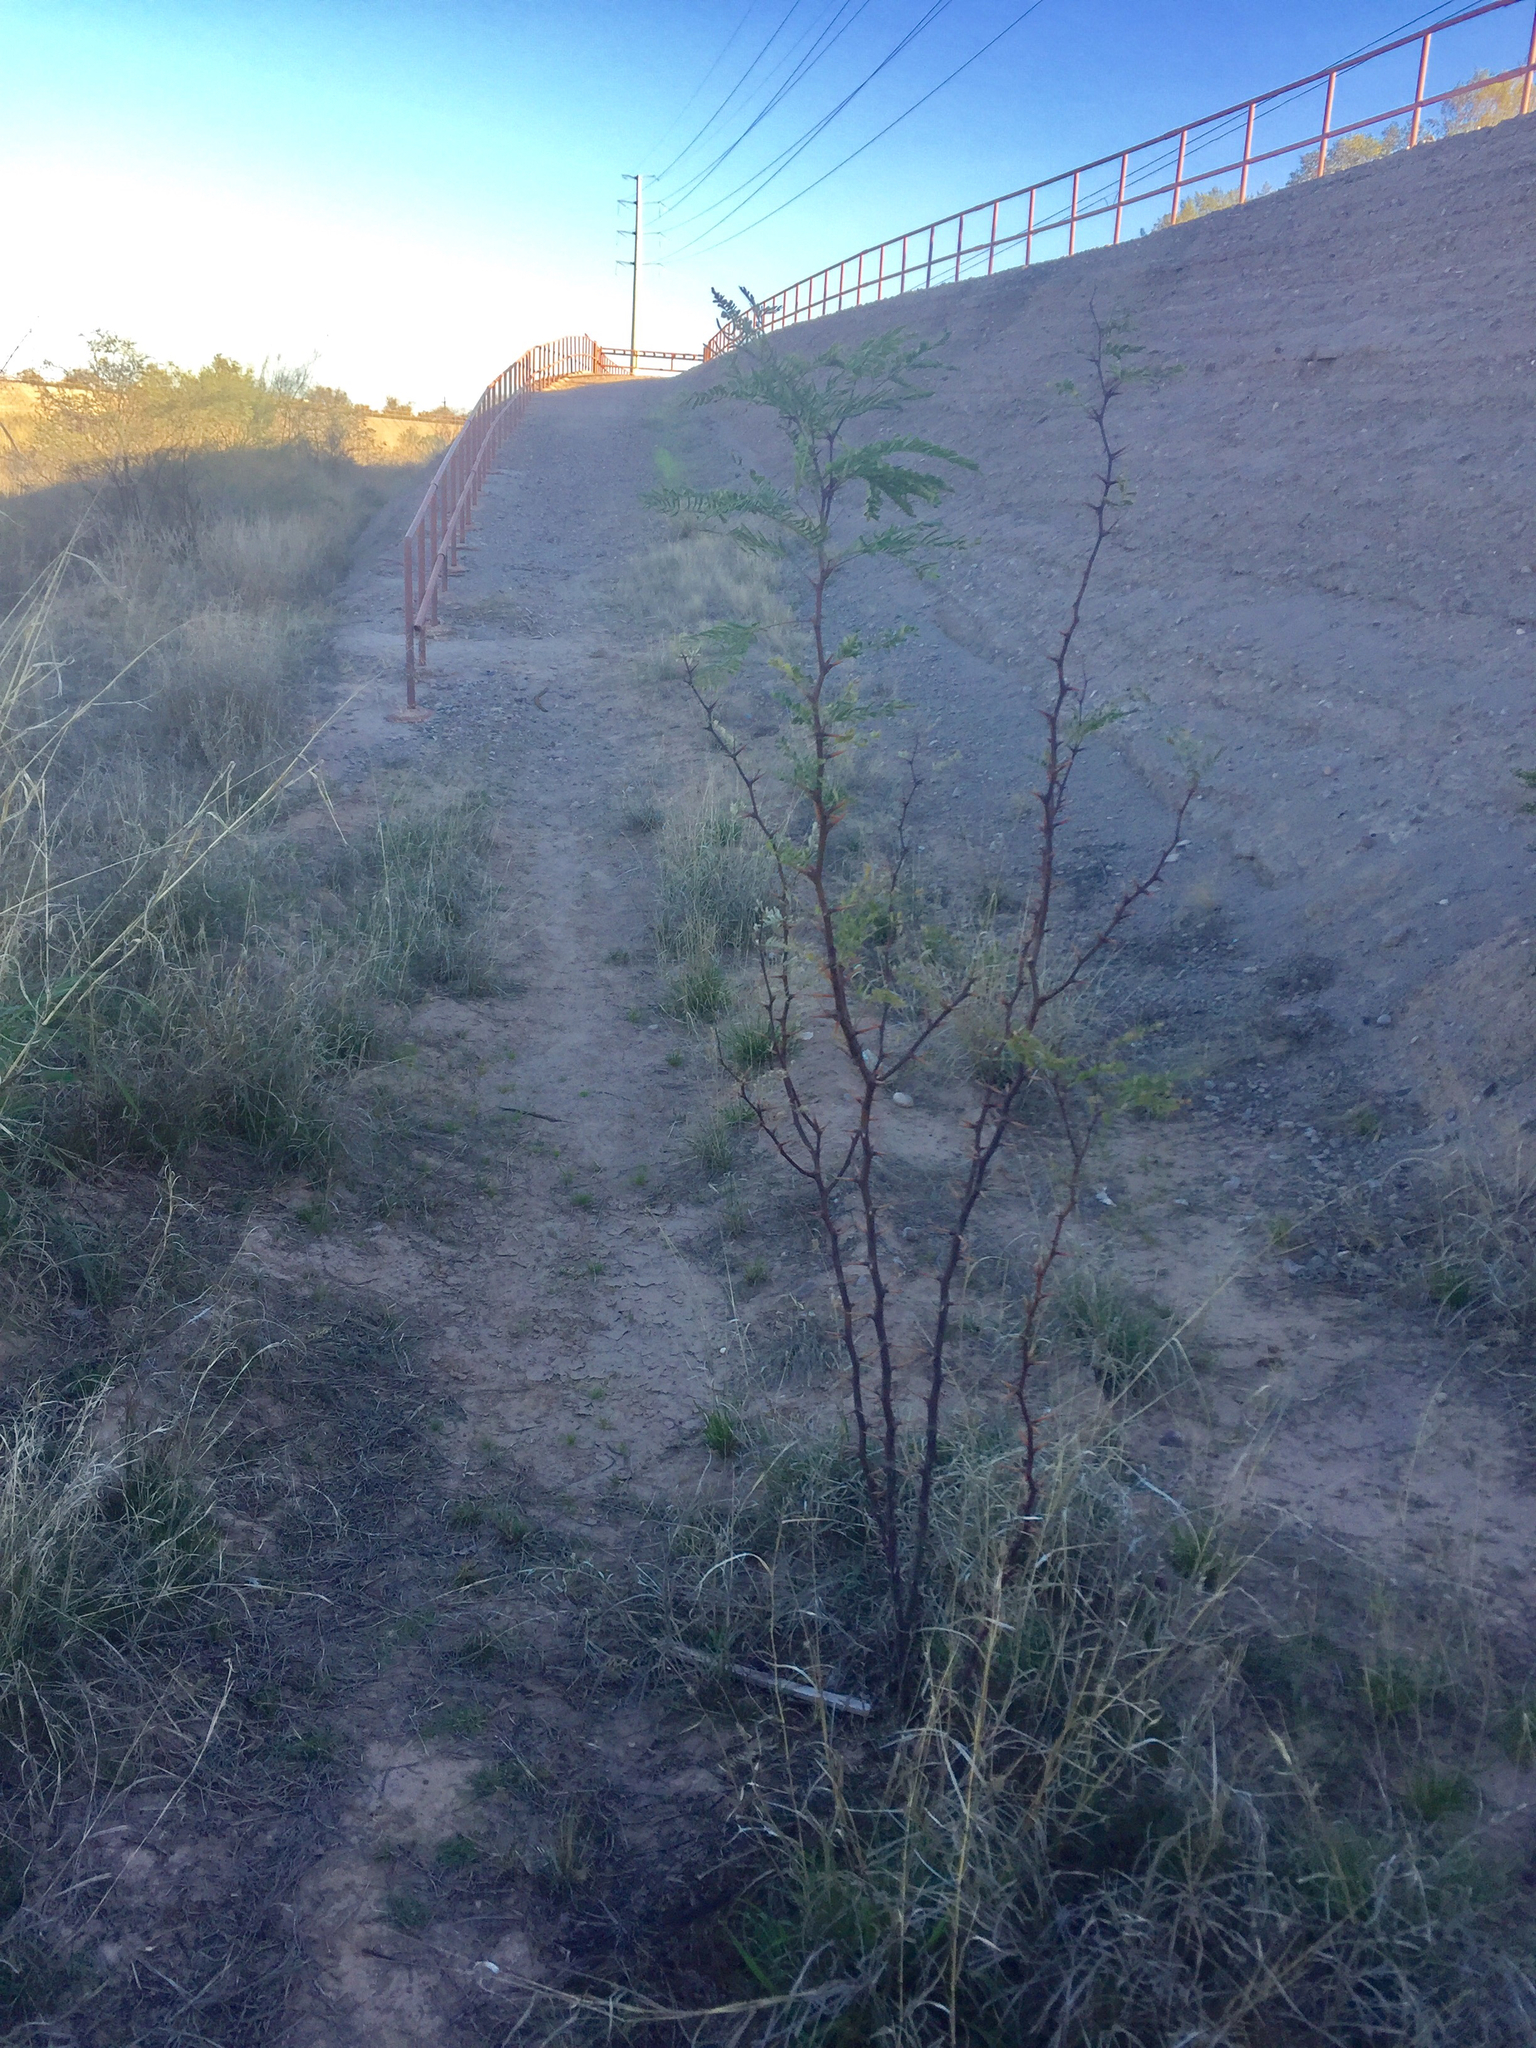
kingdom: Plantae
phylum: Tracheophyta
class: Magnoliopsida
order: Fabales
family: Fabaceae
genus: Prosopis
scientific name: Prosopis glandulosa
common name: Honey mesquite
